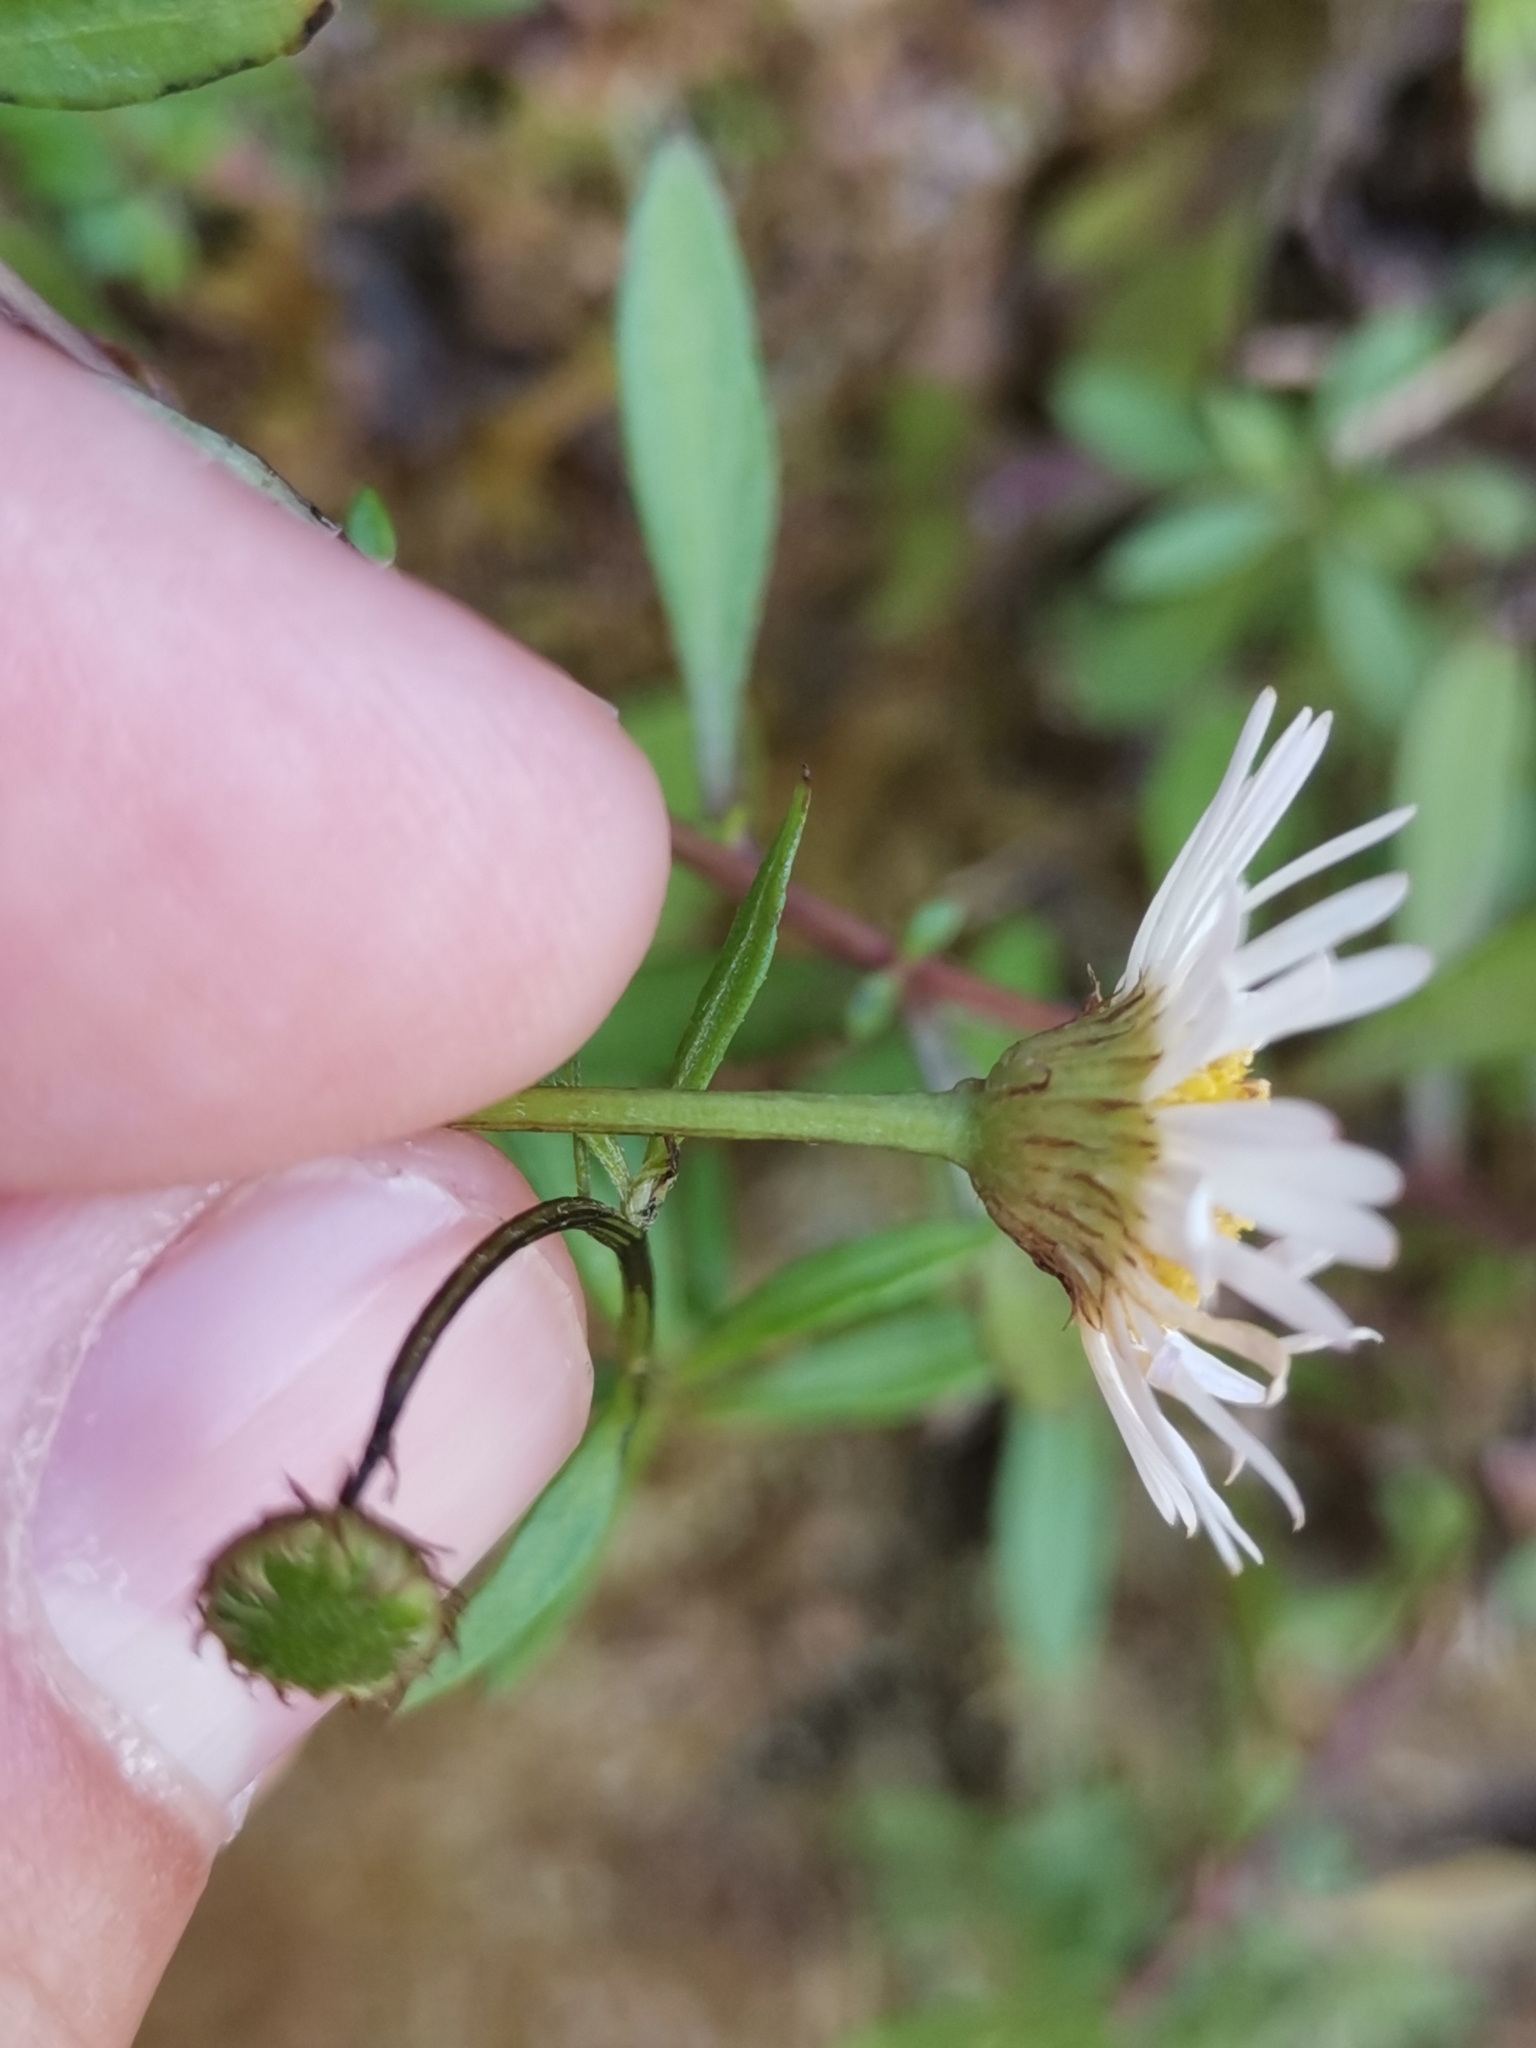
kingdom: Plantae
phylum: Tracheophyta
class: Magnoliopsida
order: Asterales
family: Asteraceae
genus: Erigeron
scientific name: Erigeron karvinskianus
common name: Mexican fleabane
